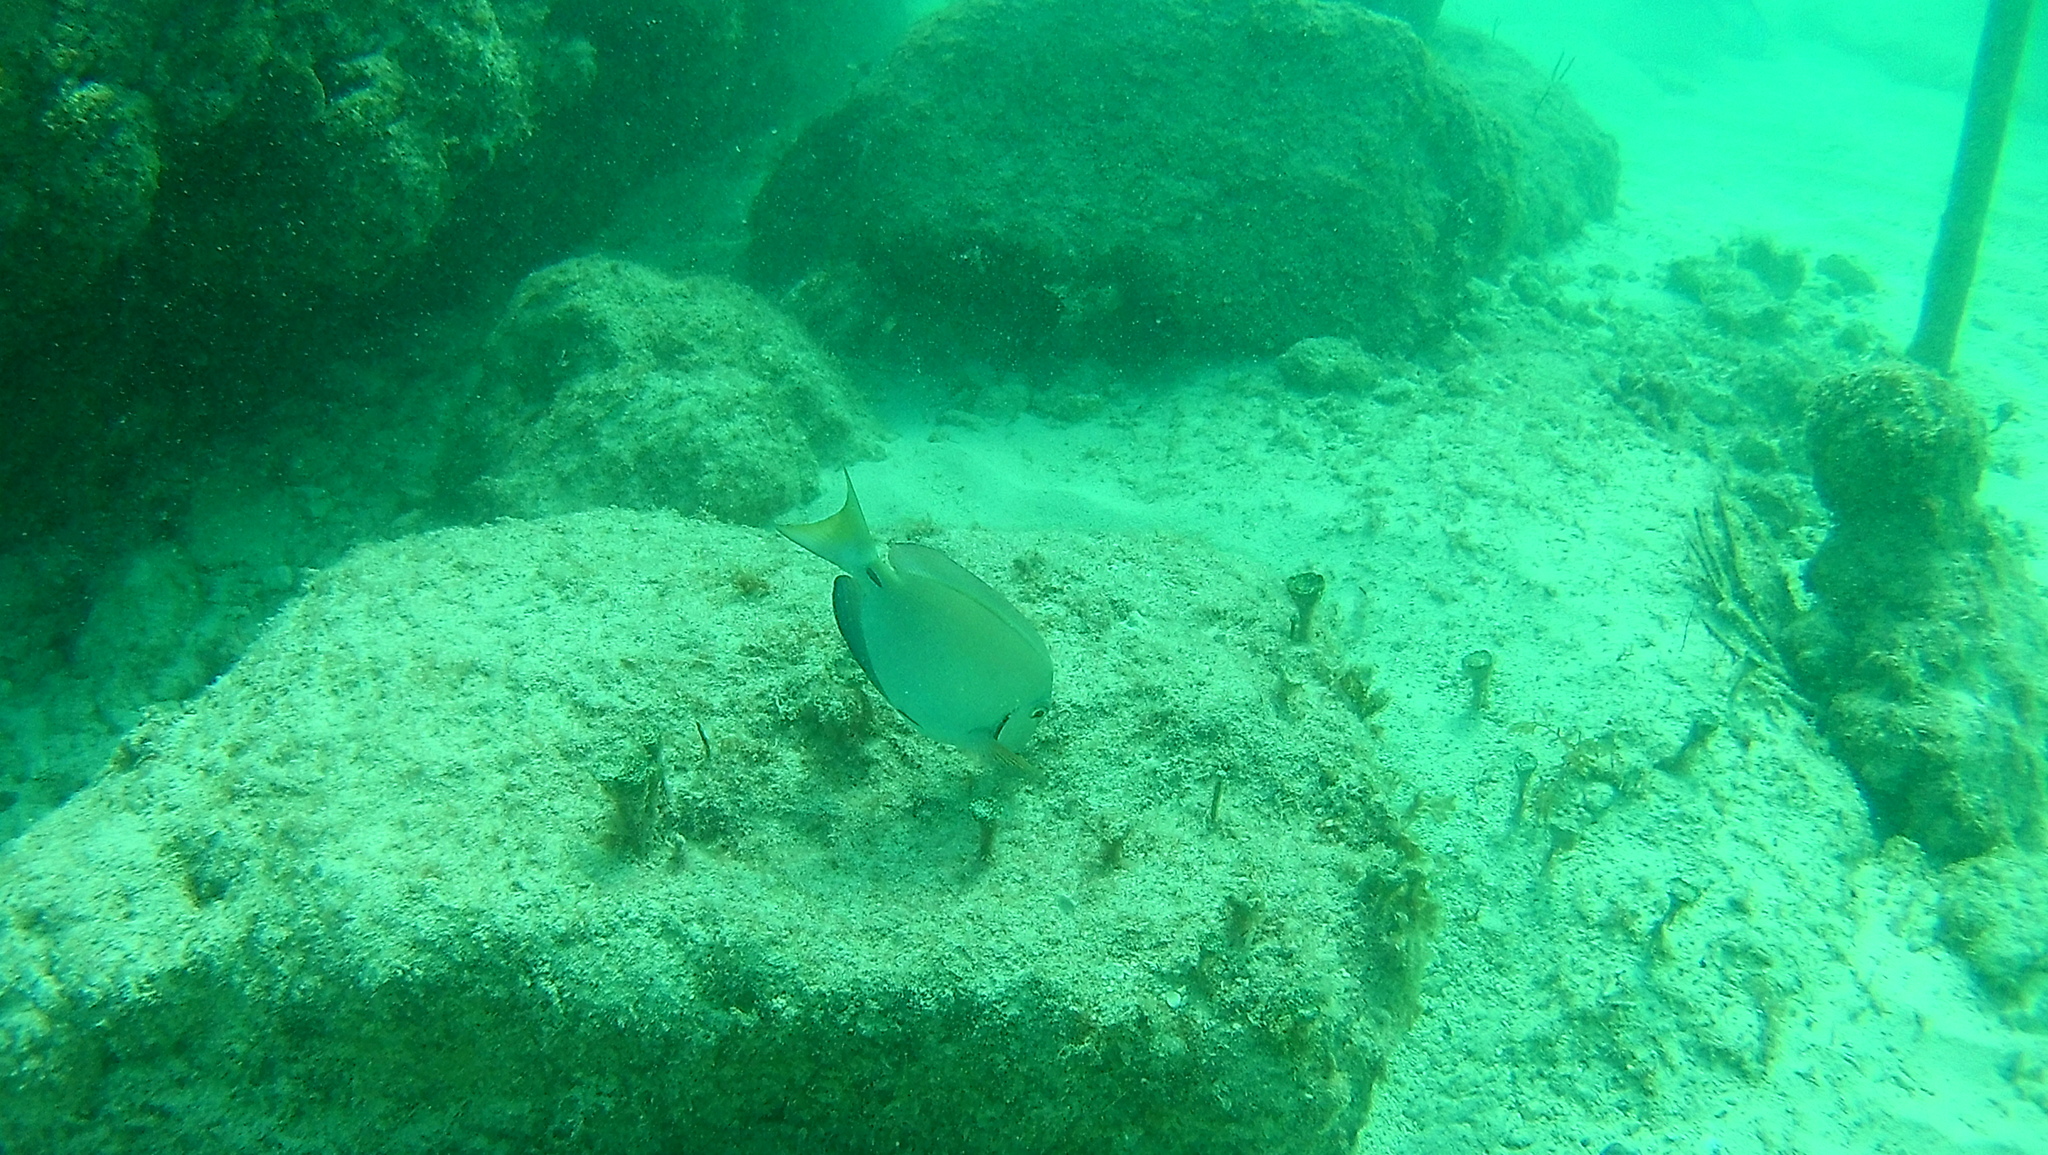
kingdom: Animalia
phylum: Chordata
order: Perciformes
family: Acanthuridae
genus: Acanthurus
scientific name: Acanthurus bahianus
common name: Ocean surgeon
